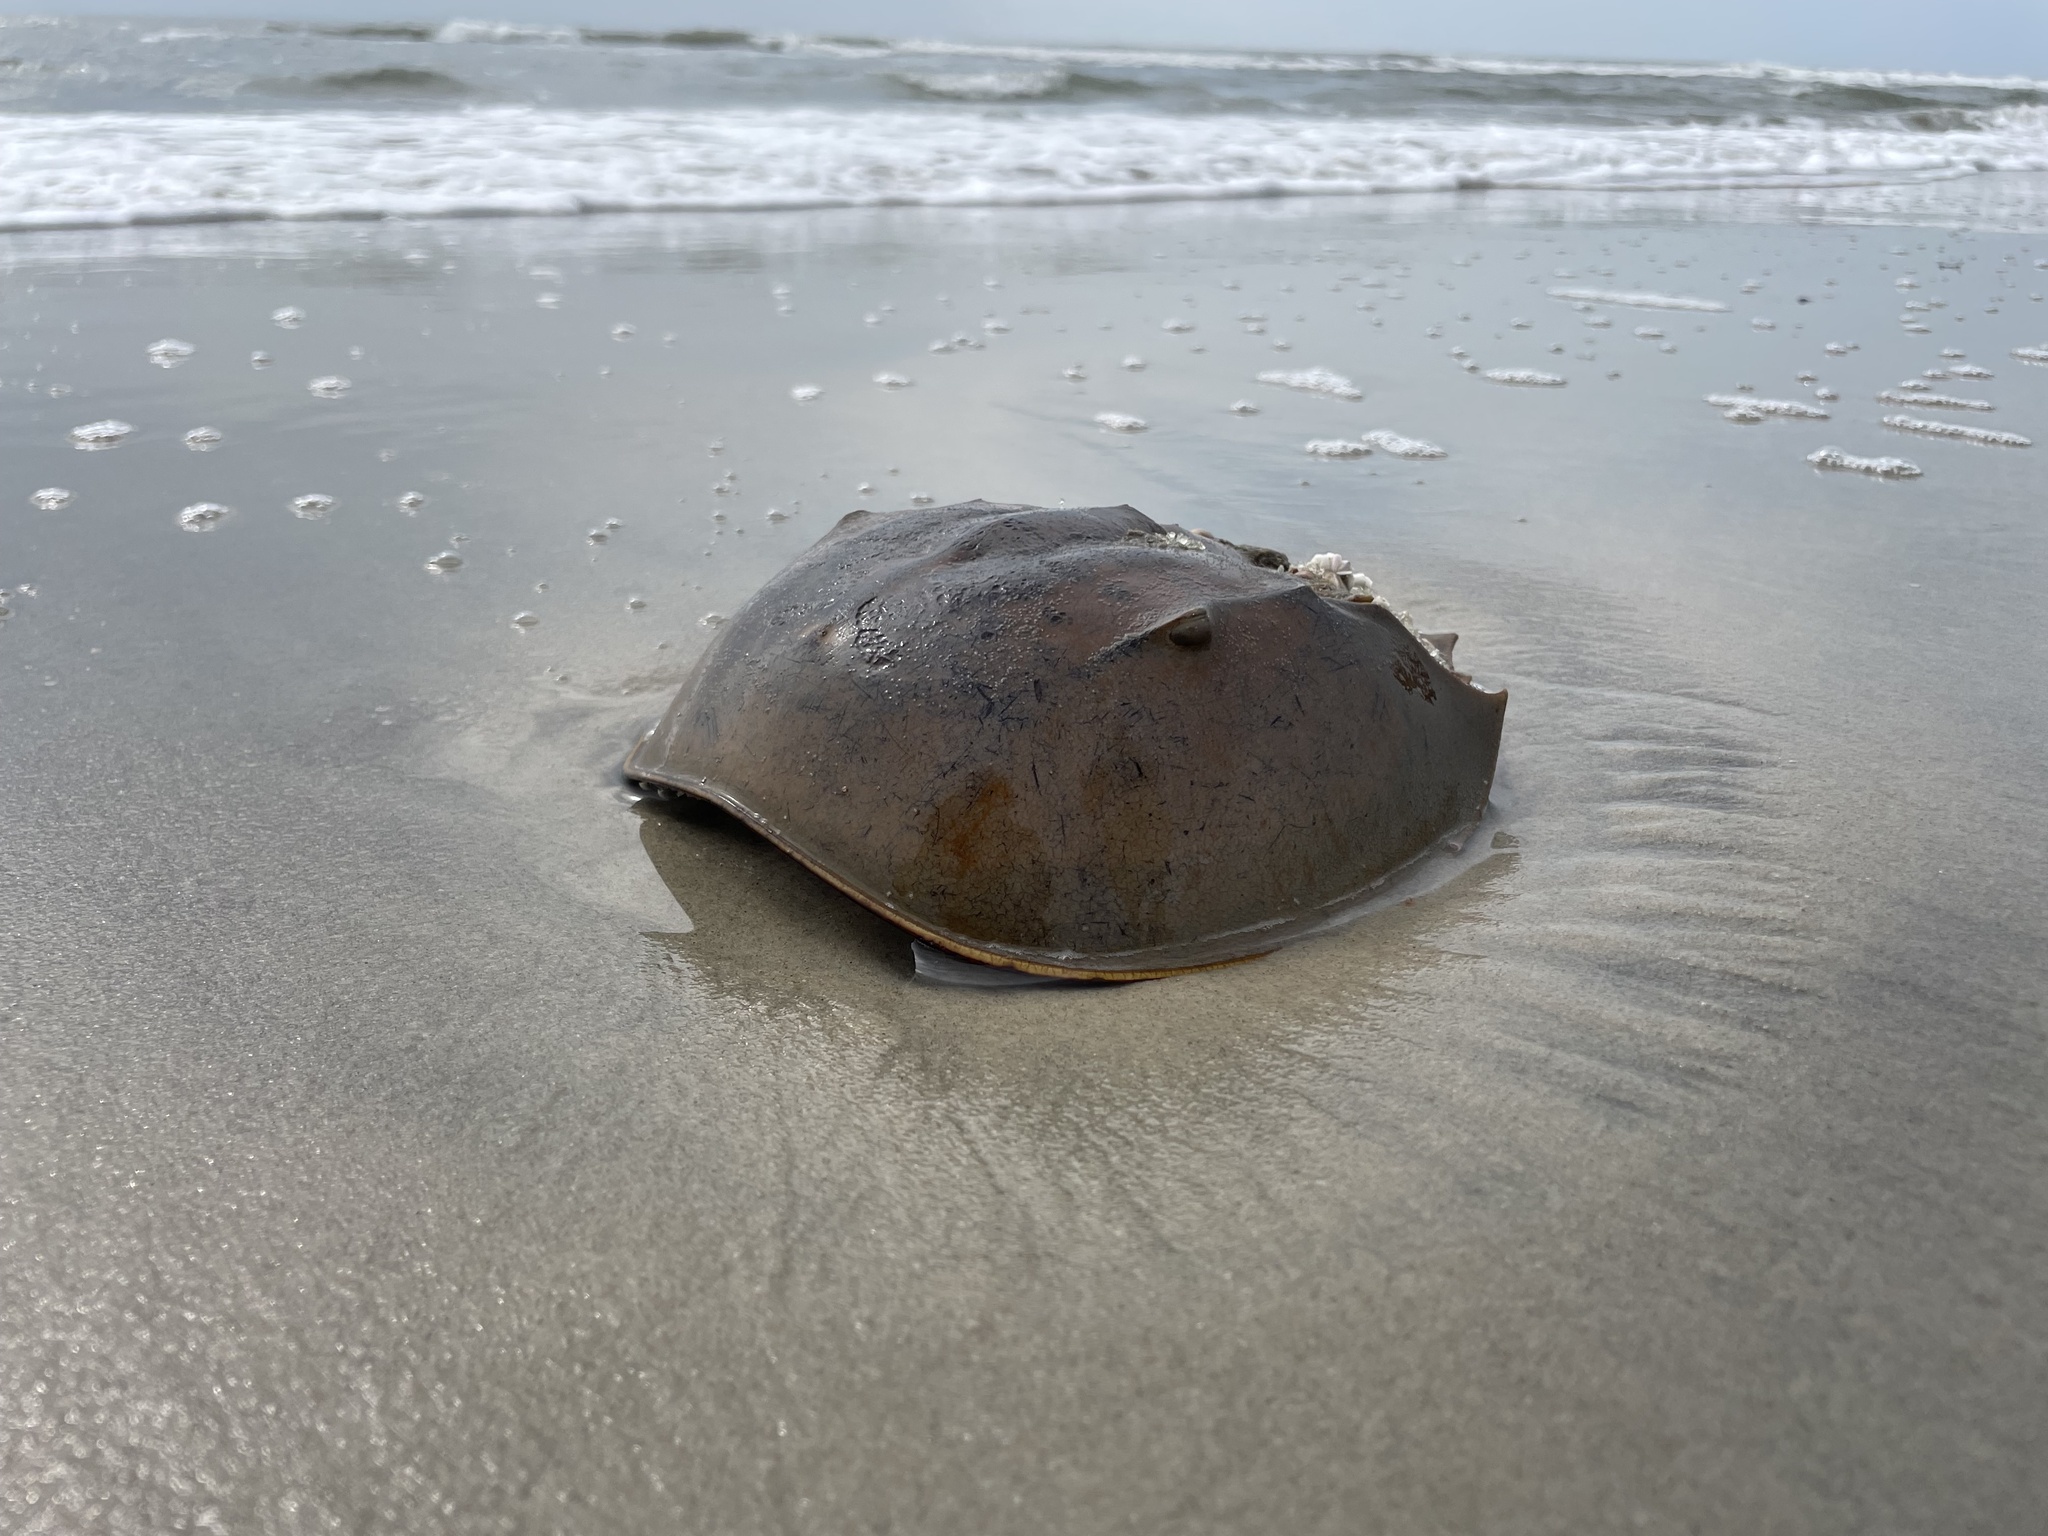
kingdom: Animalia
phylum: Arthropoda
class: Merostomata
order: Xiphosurida
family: Limulidae
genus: Limulus
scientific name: Limulus polyphemus
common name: Horseshoe crab
